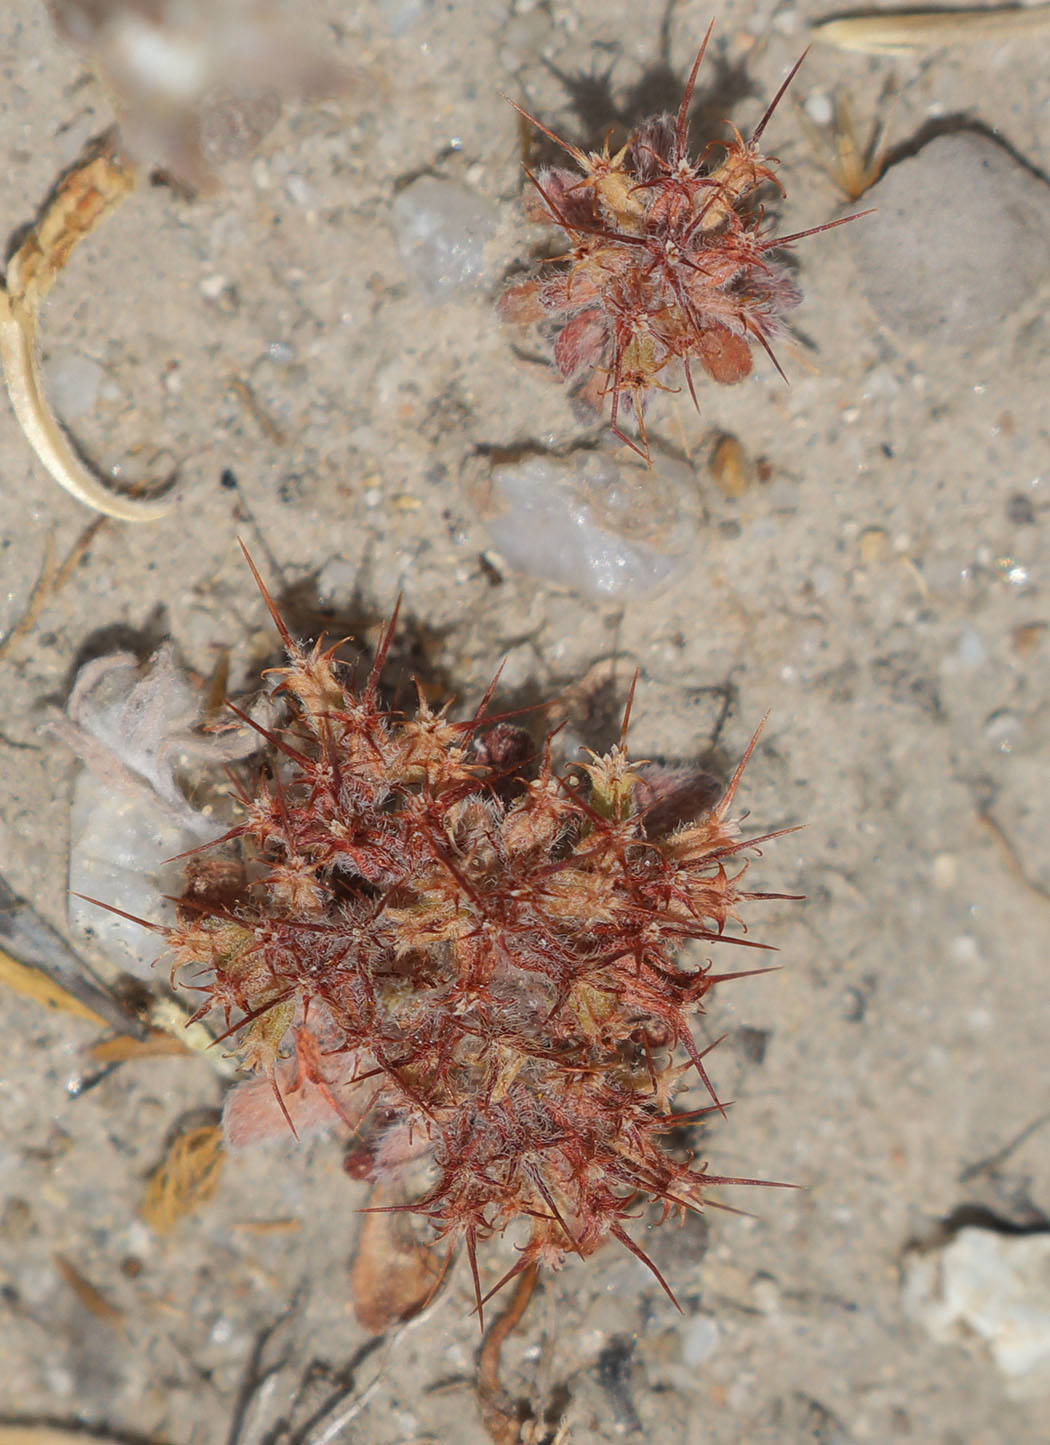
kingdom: Plantae
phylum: Tracheophyta
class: Magnoliopsida
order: Caryophyllales
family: Polygonaceae
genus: Chorizanthe
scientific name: Chorizanthe uniaristata
